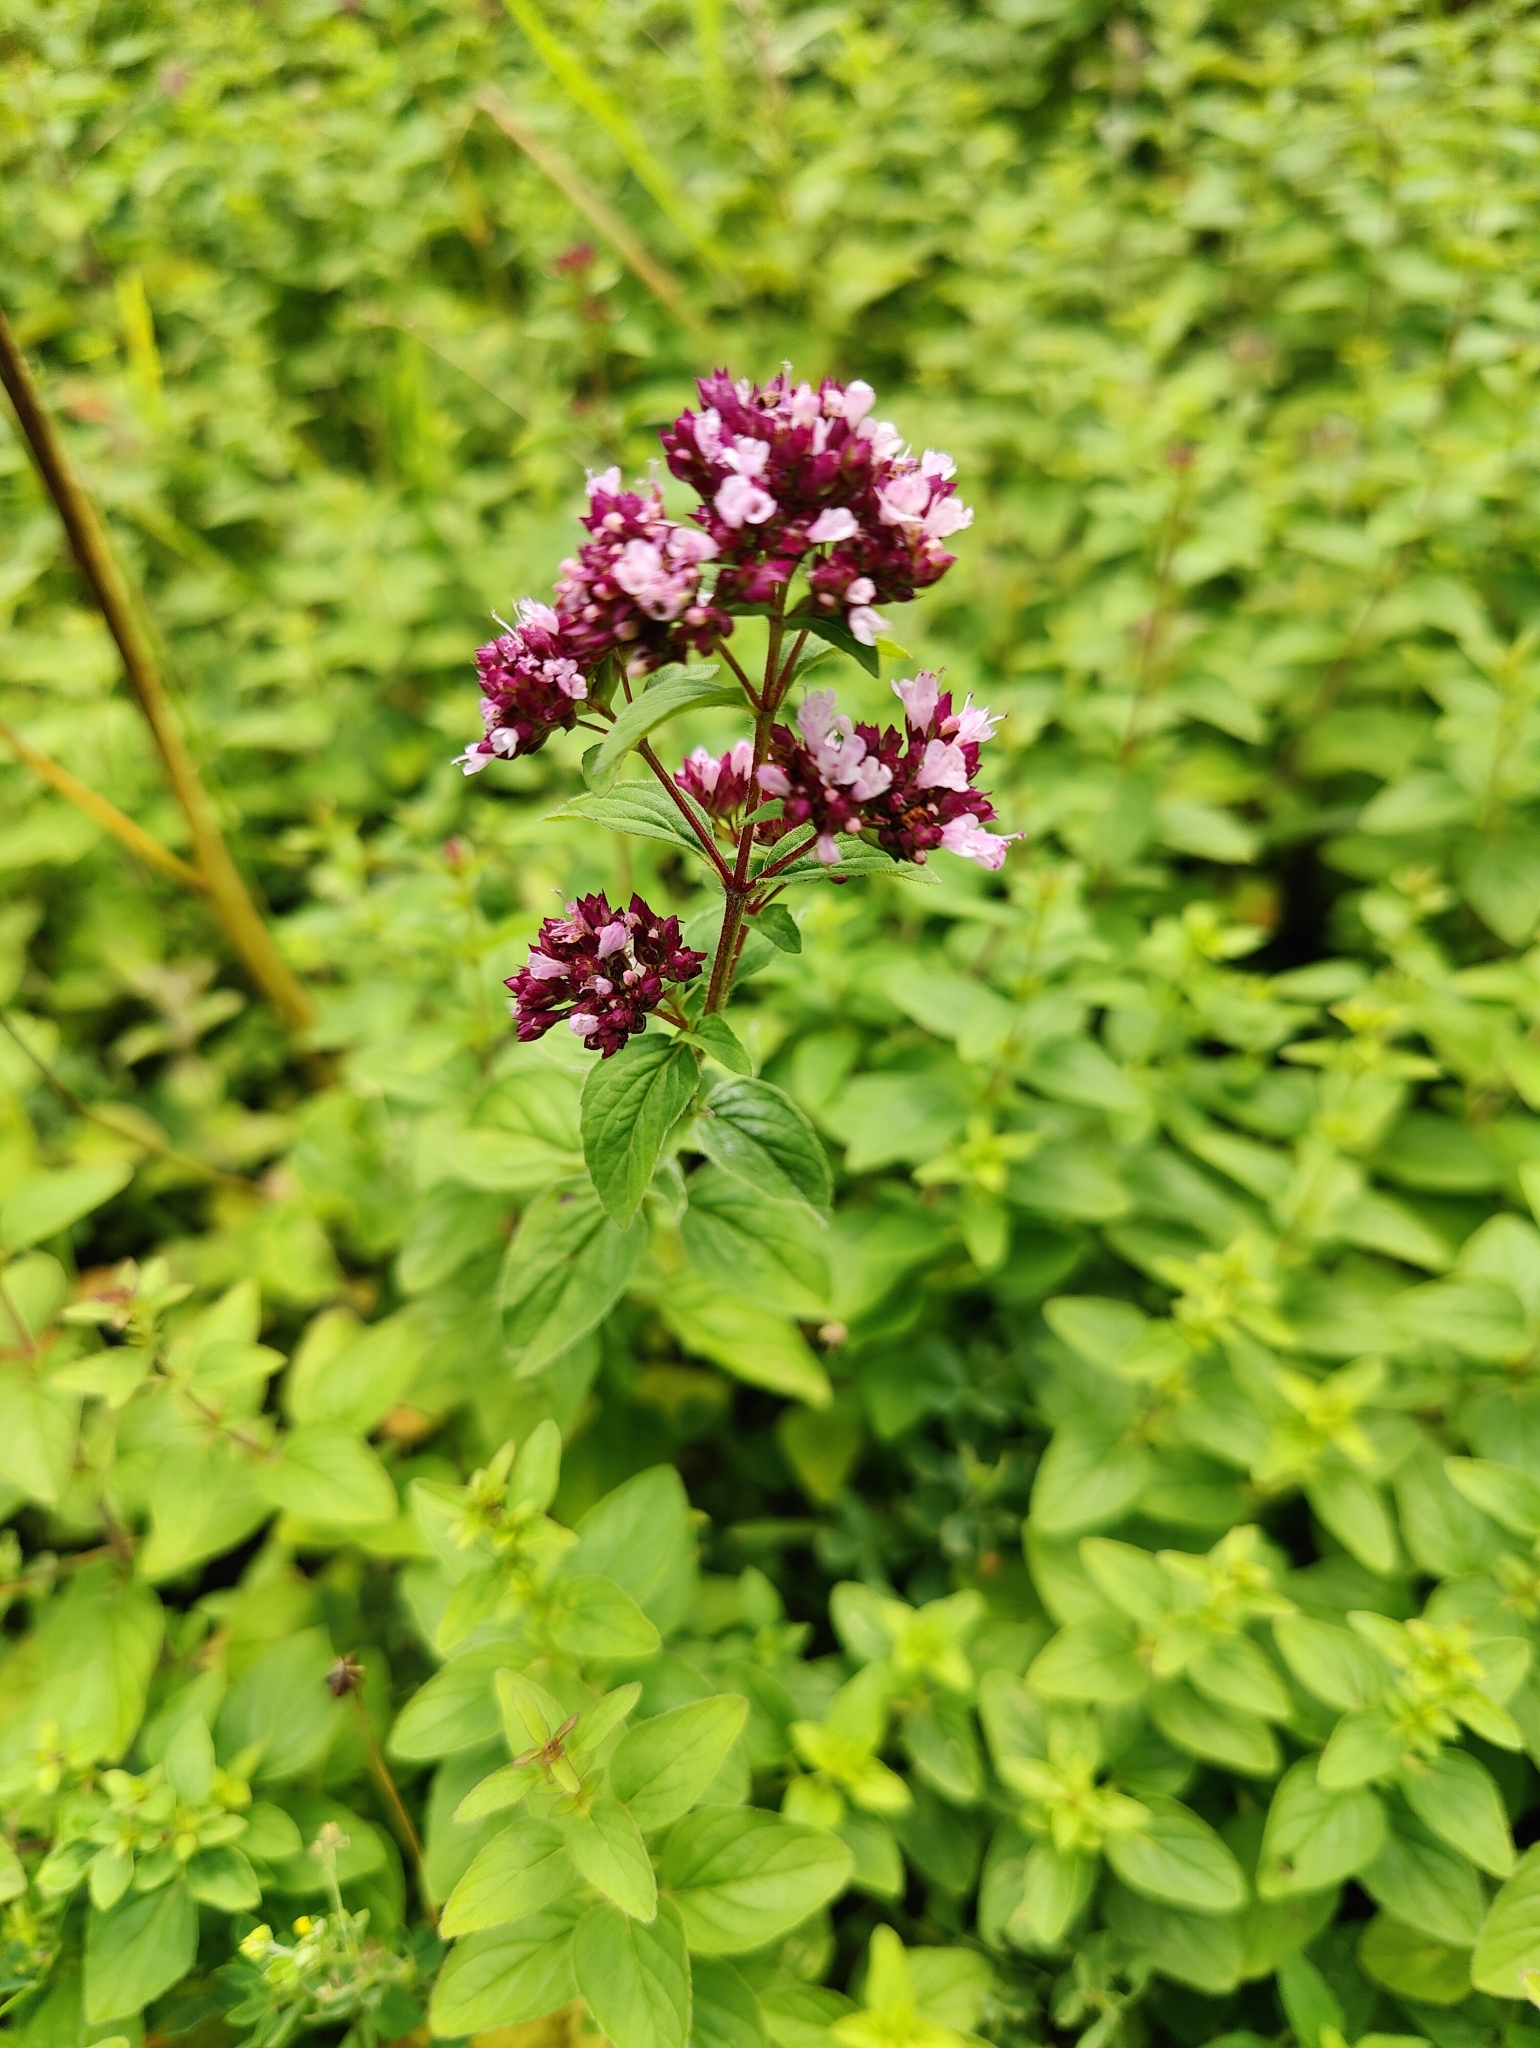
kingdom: Plantae
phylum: Tracheophyta
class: Magnoliopsida
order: Lamiales
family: Lamiaceae
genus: Origanum
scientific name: Origanum vulgare
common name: Wild marjoram
